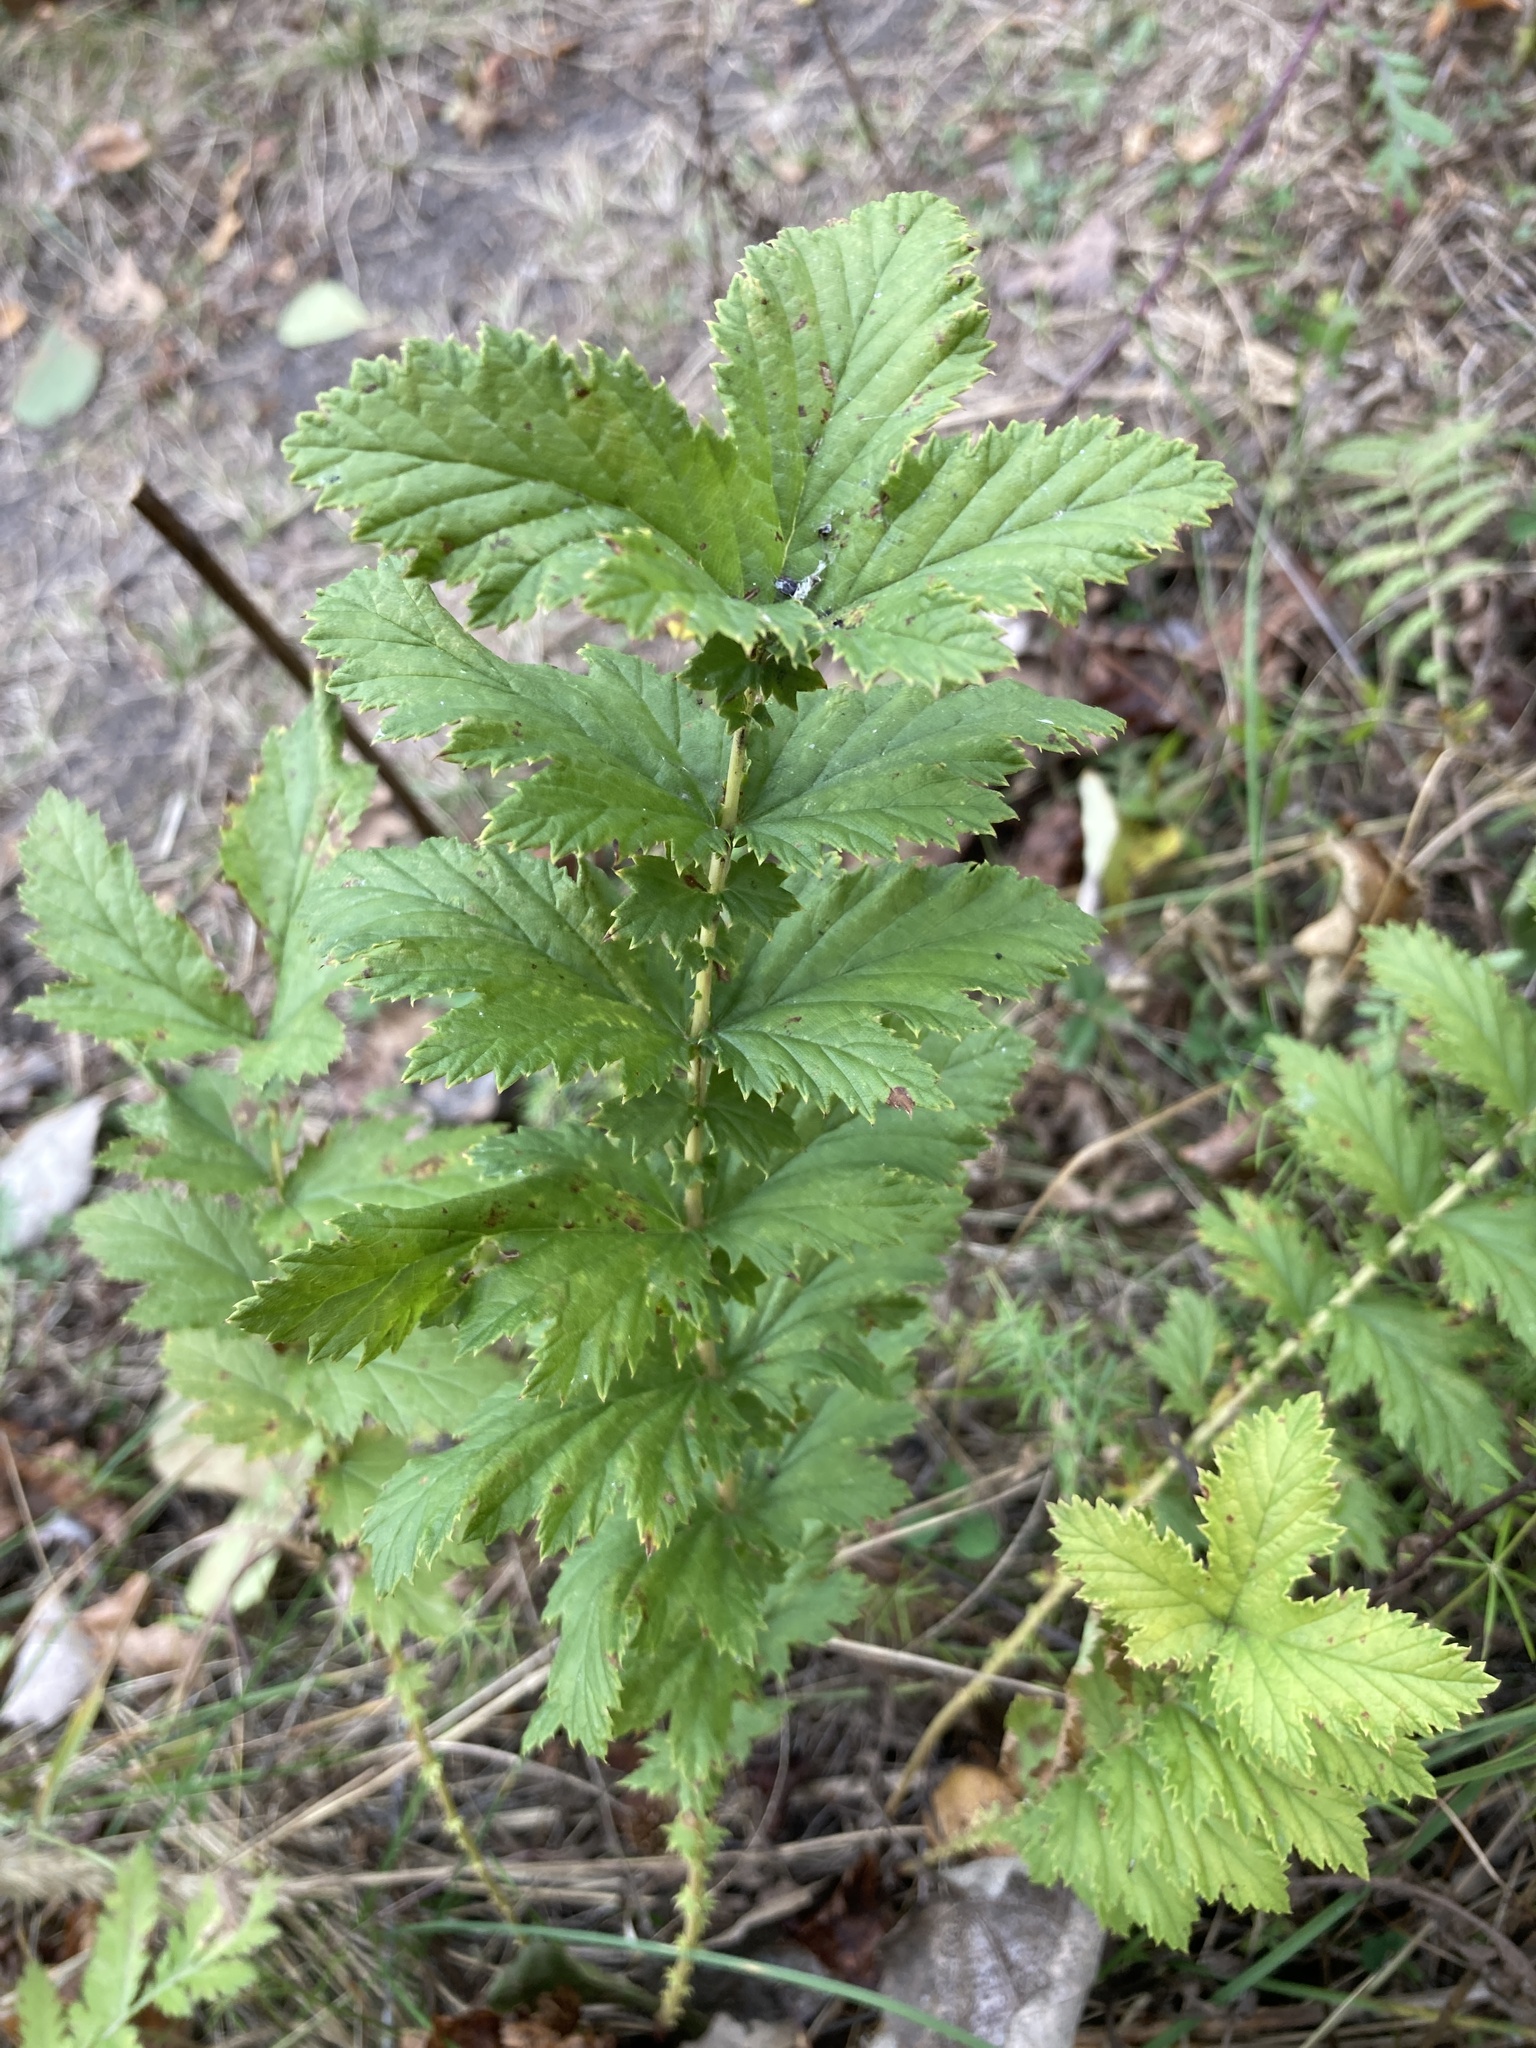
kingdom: Plantae
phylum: Tracheophyta
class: Magnoliopsida
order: Rosales
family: Rosaceae
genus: Filipendula
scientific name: Filipendula ulmaria
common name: Meadowsweet
